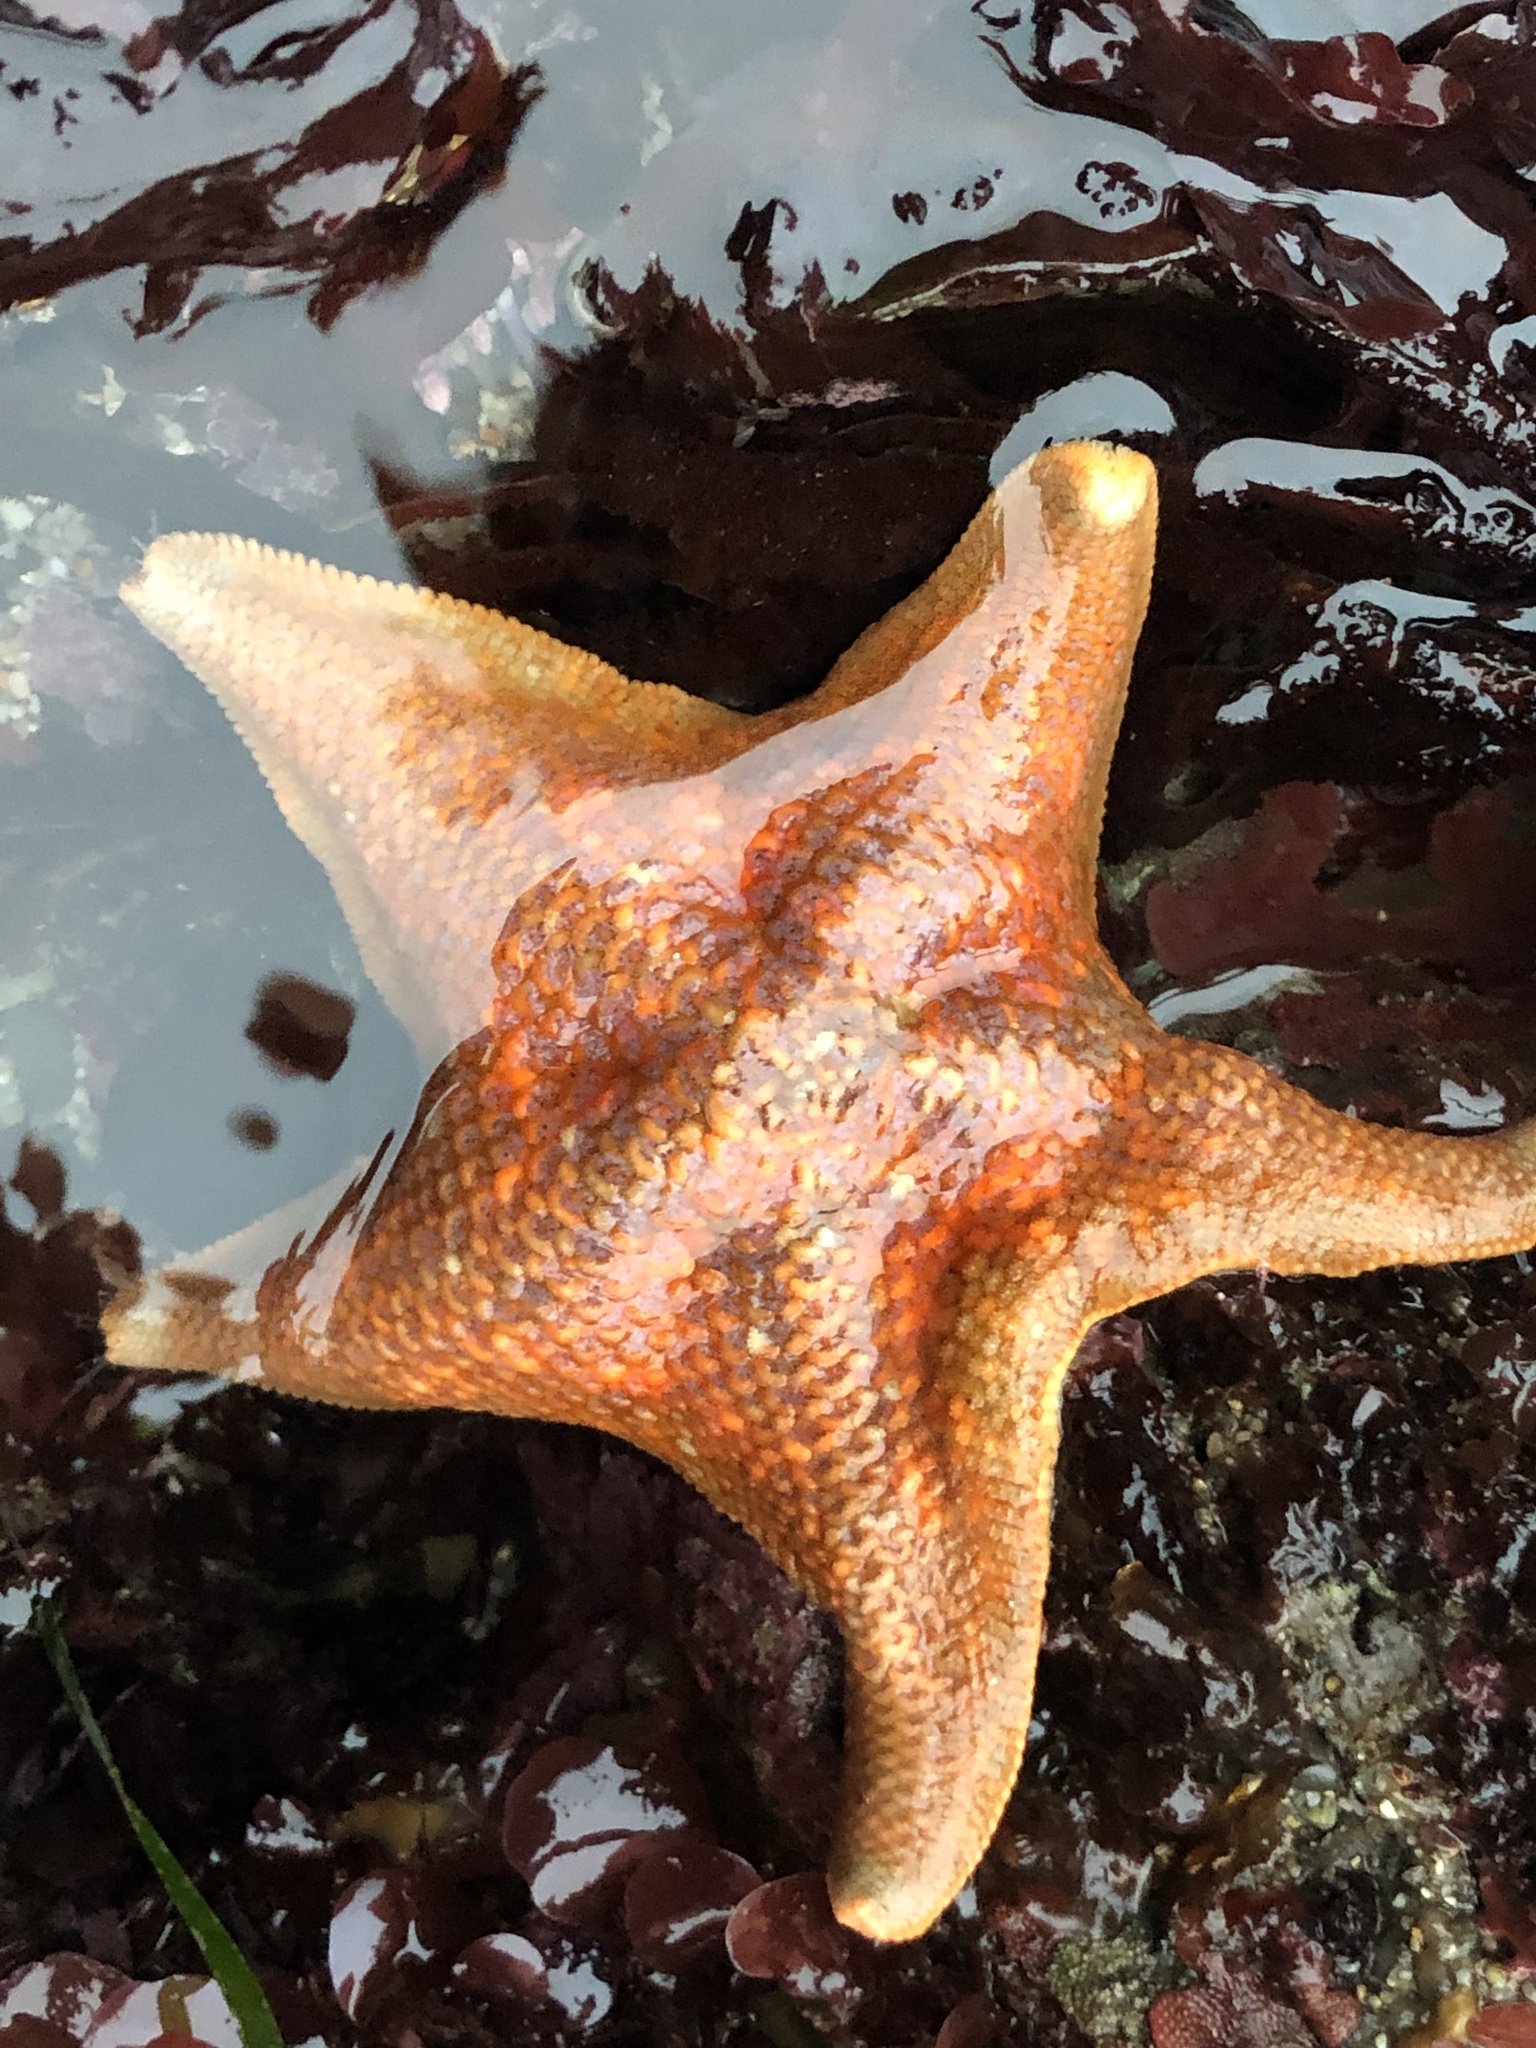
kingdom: Animalia
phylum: Echinodermata
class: Asteroidea
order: Valvatida
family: Asterinidae
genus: Patiria
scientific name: Patiria miniata
